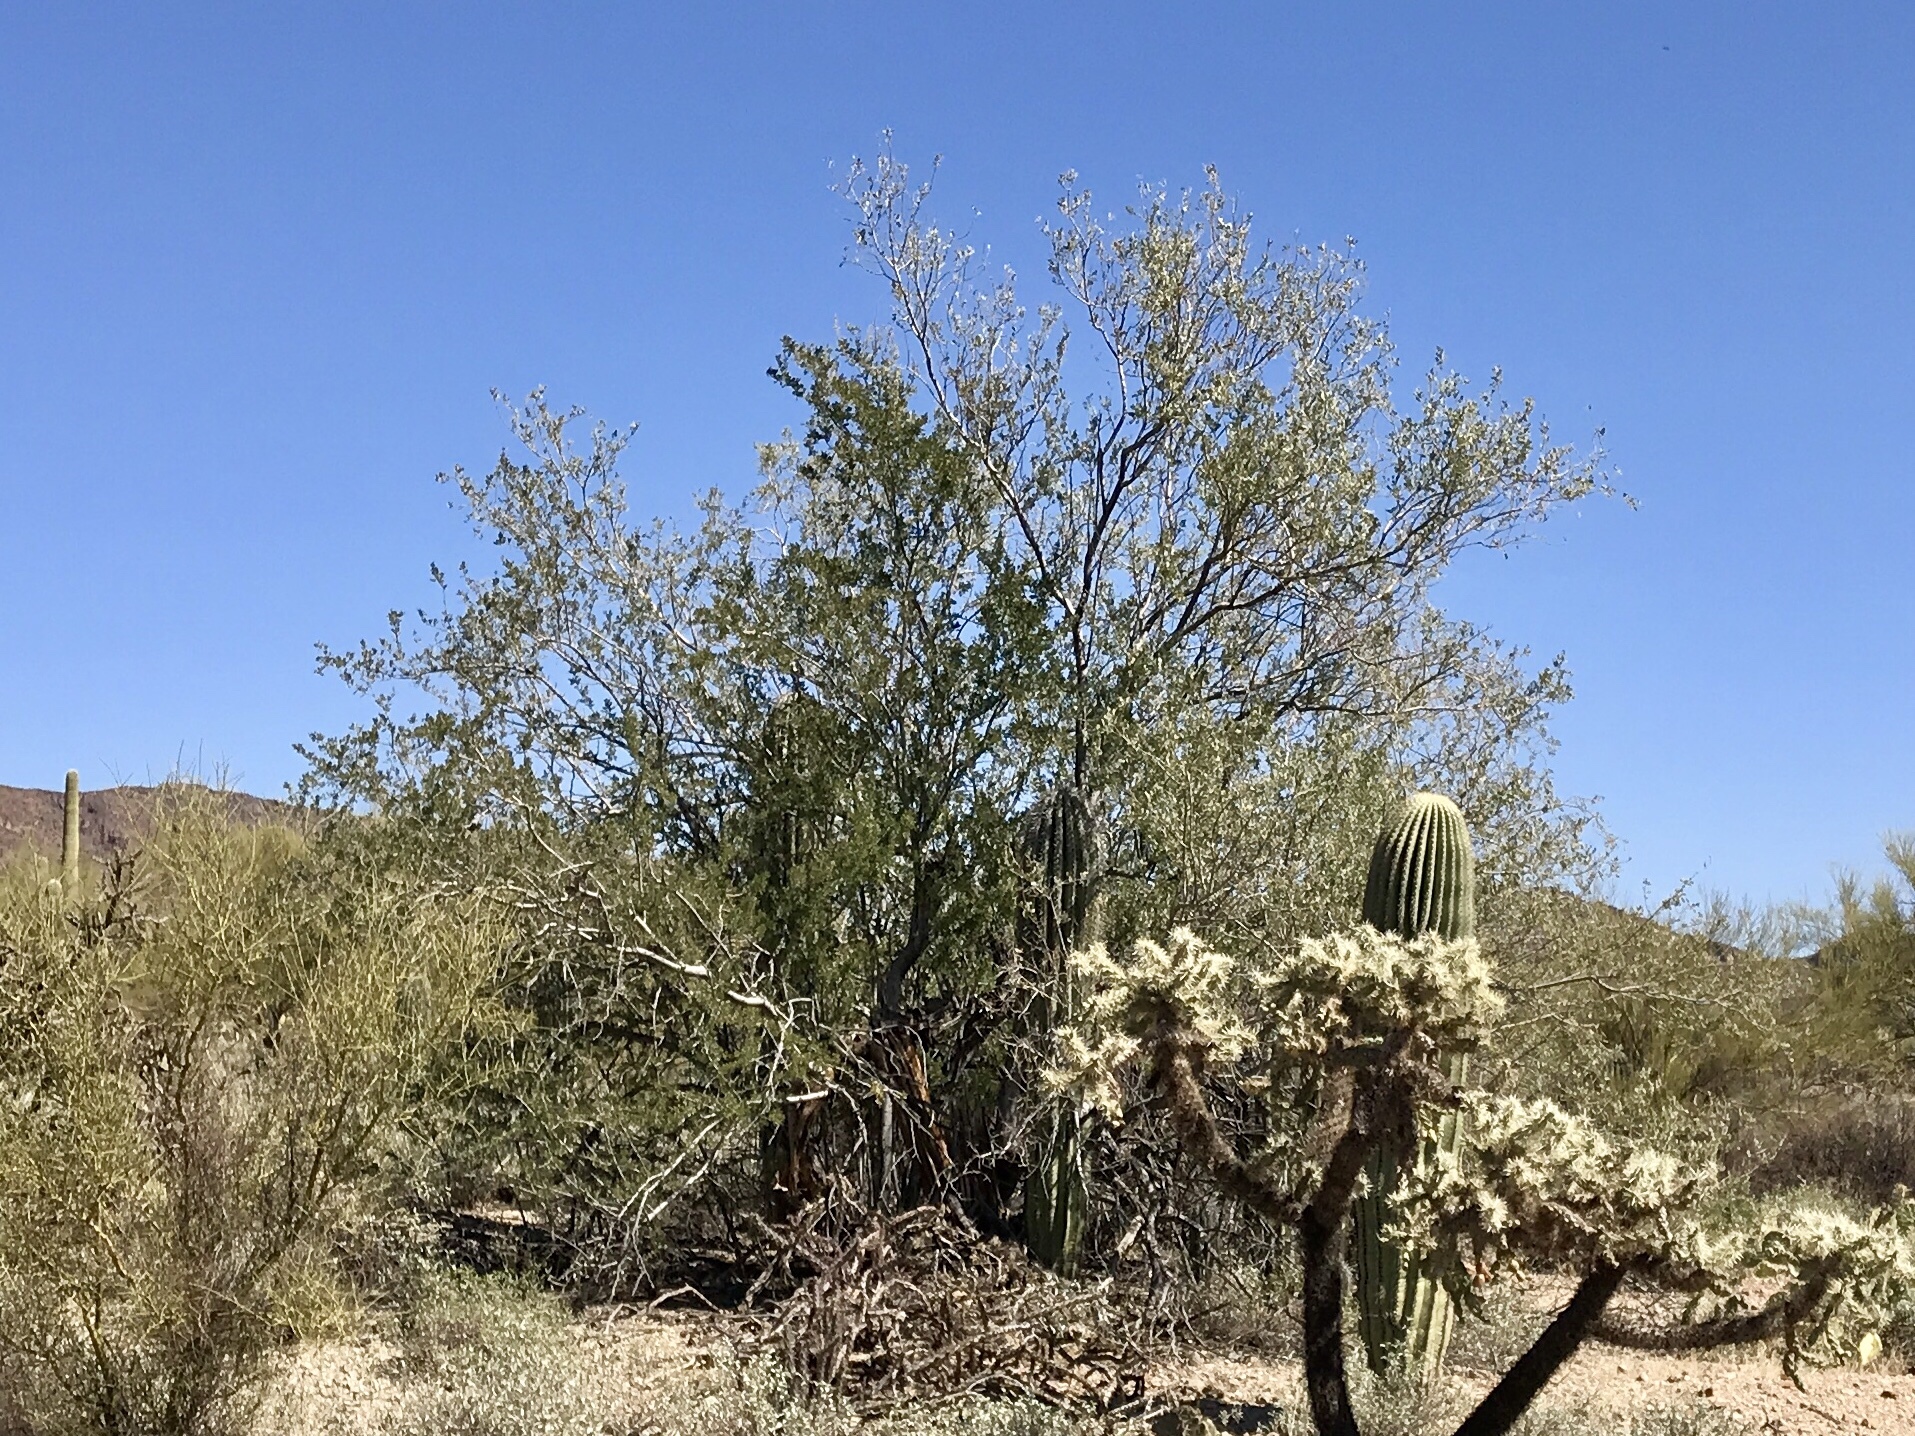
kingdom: Plantae
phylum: Tracheophyta
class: Magnoliopsida
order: Fabales
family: Fabaceae
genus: Olneya
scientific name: Olneya tesota
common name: Desert ironwood
